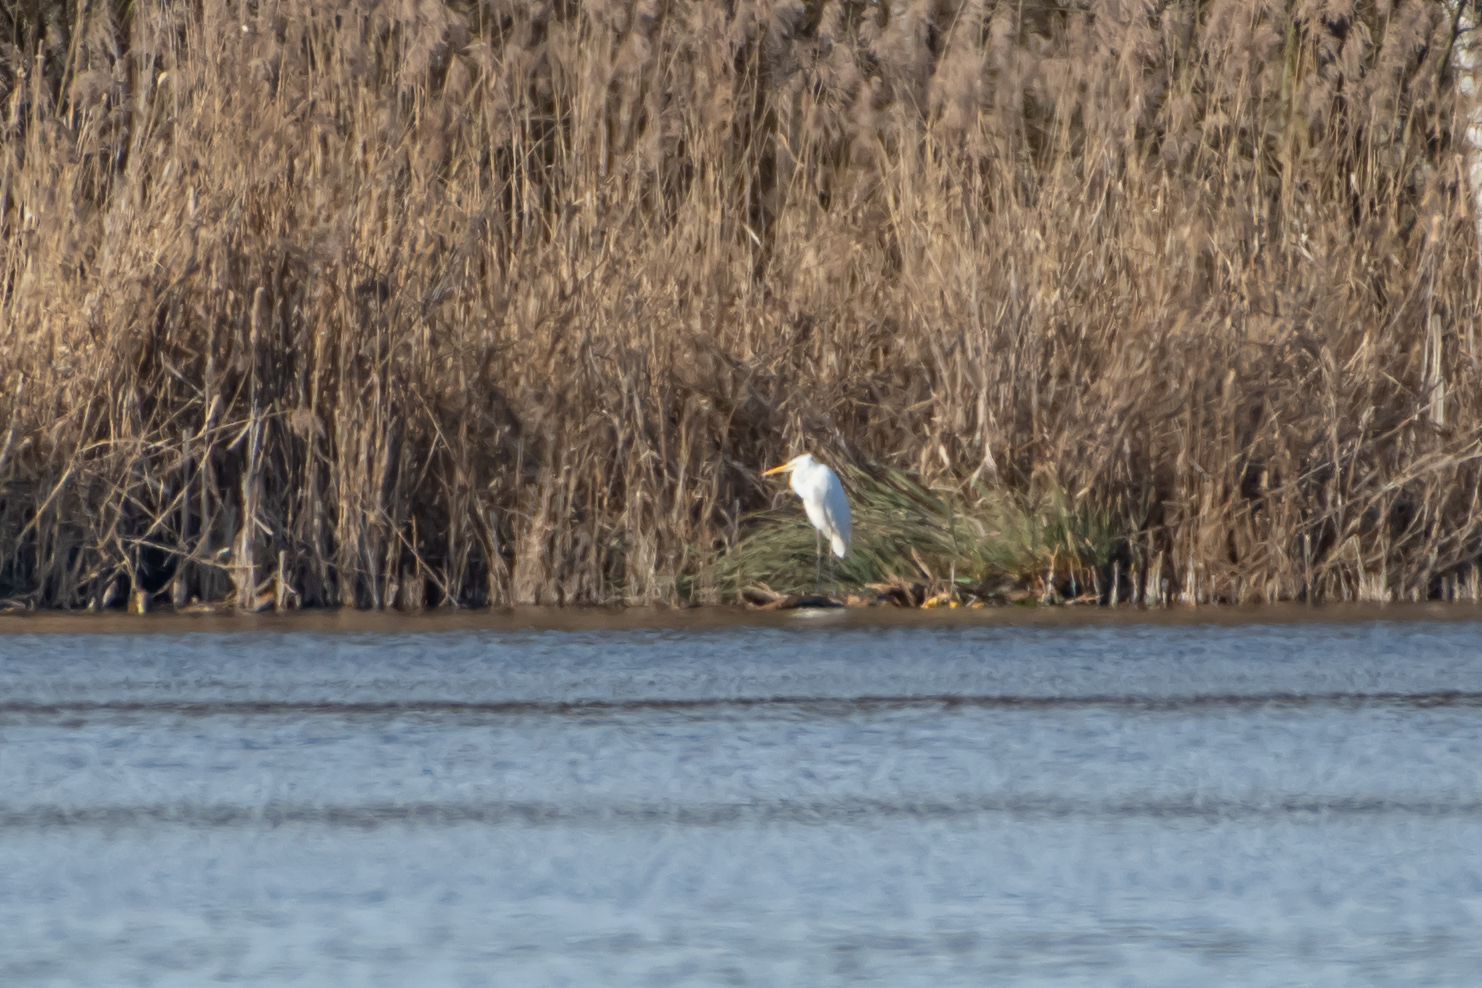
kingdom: Animalia
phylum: Chordata
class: Aves
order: Pelecaniformes
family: Ardeidae
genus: Ardea
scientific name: Ardea alba
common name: Great egret
